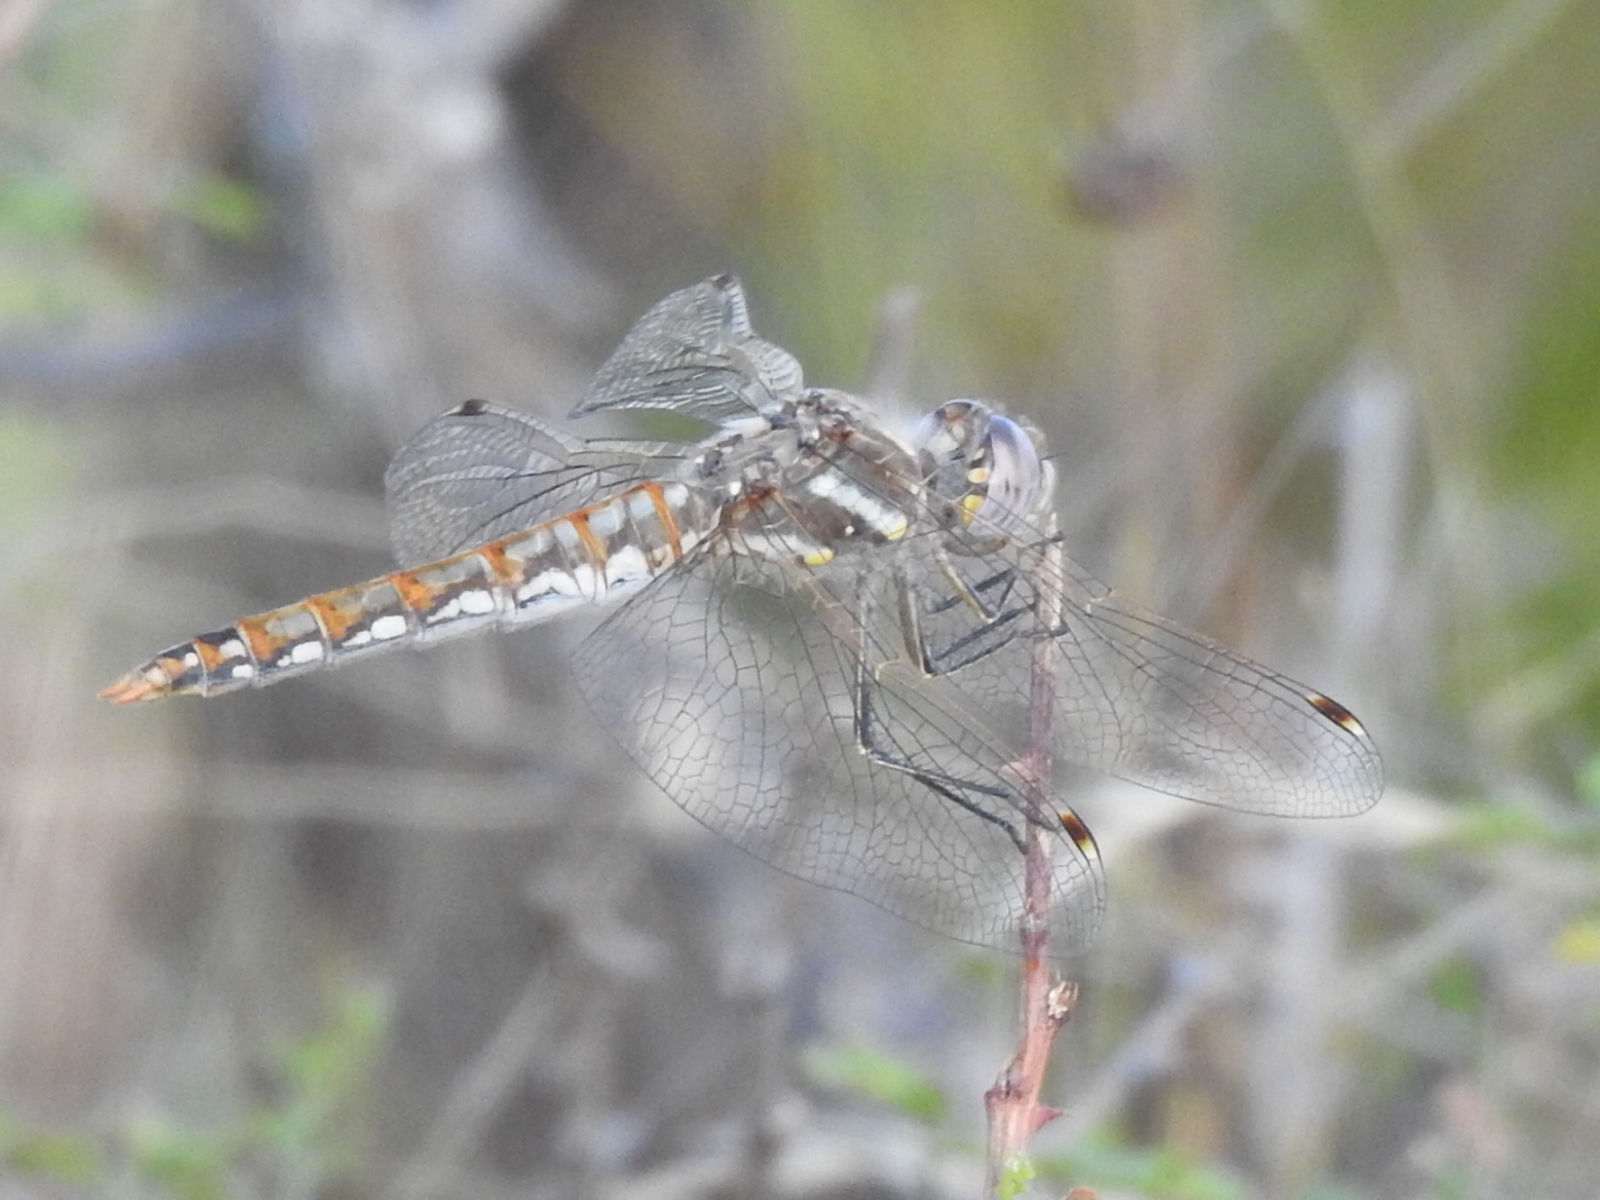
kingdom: Animalia
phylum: Arthropoda
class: Insecta
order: Odonata
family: Libellulidae
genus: Sympetrum
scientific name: Sympetrum corruptum
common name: Variegated meadowhawk
